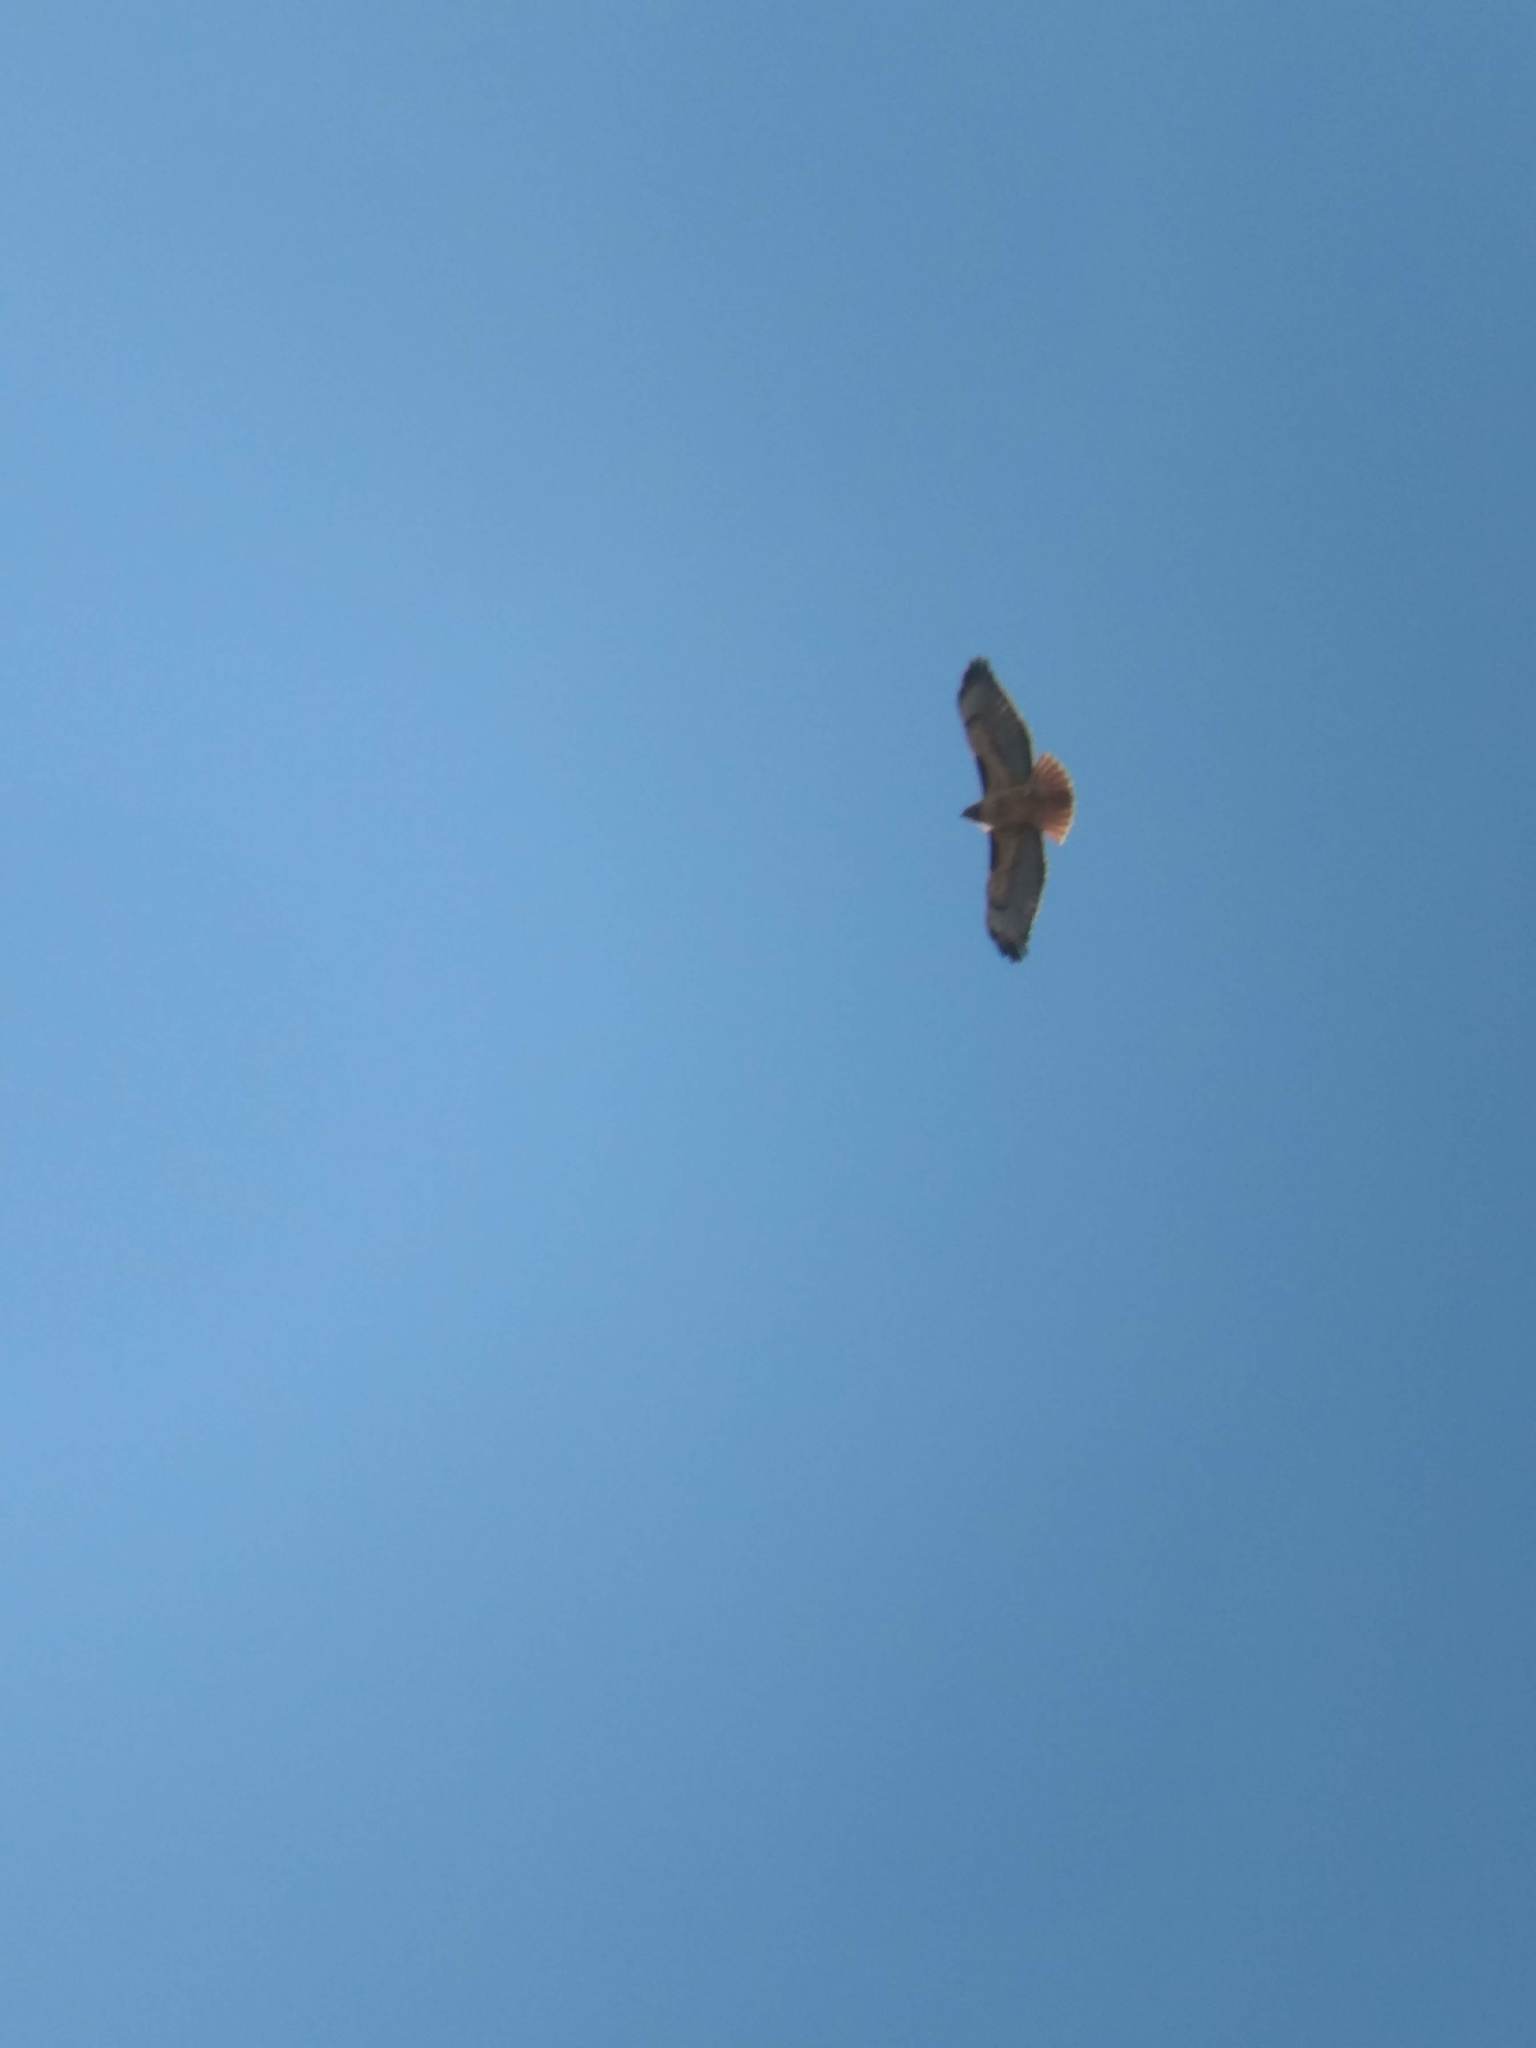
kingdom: Animalia
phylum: Chordata
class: Aves
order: Accipitriformes
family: Accipitridae
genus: Buteo
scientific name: Buteo jamaicensis
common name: Red-tailed hawk
